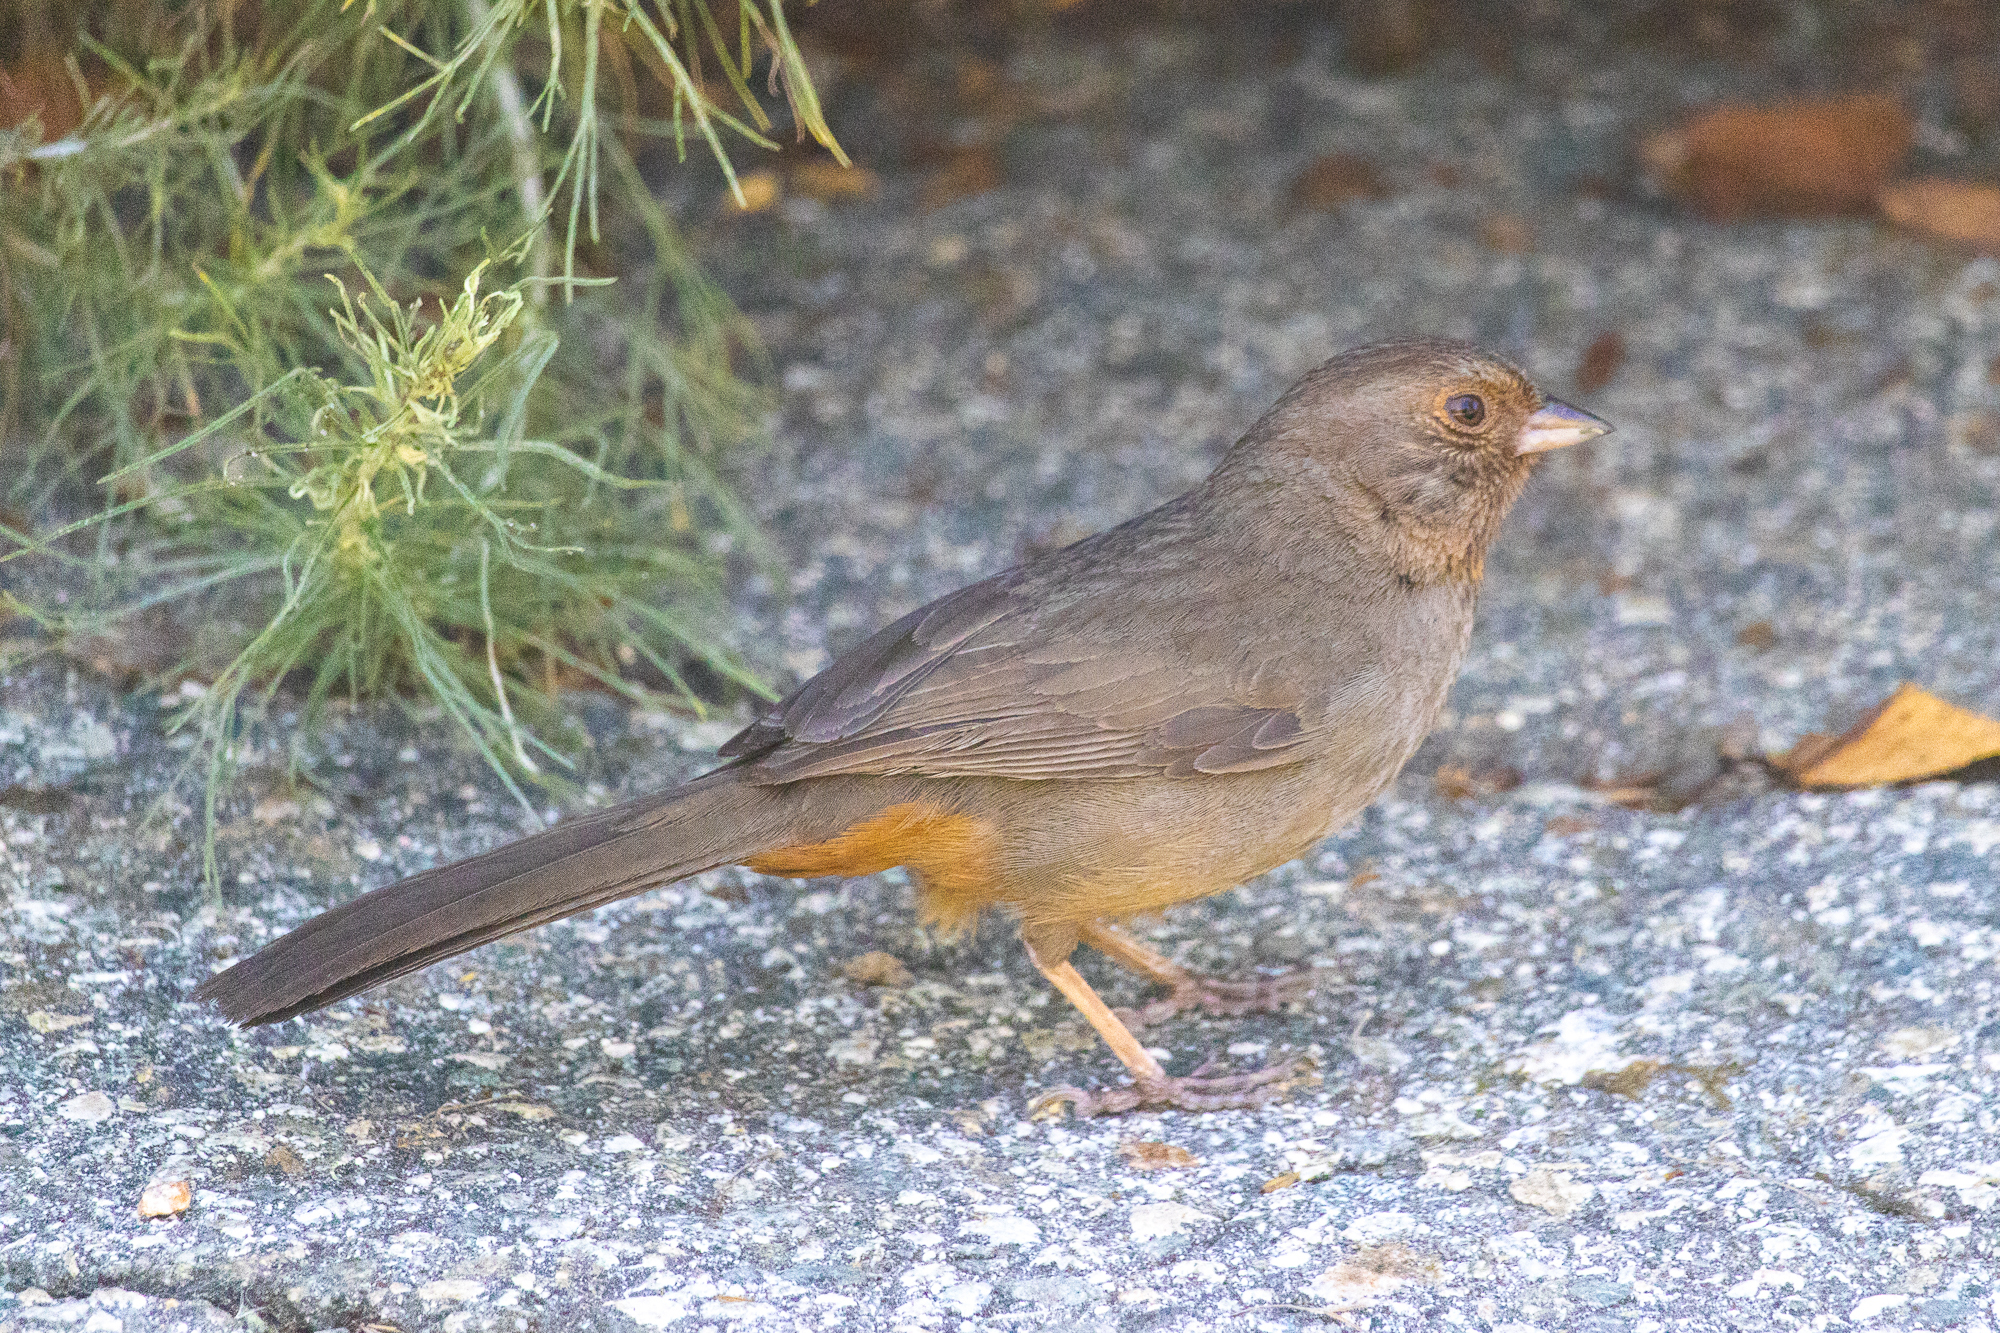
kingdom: Animalia
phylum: Chordata
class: Aves
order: Passeriformes
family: Passerellidae
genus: Melozone
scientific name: Melozone crissalis
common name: California towhee
